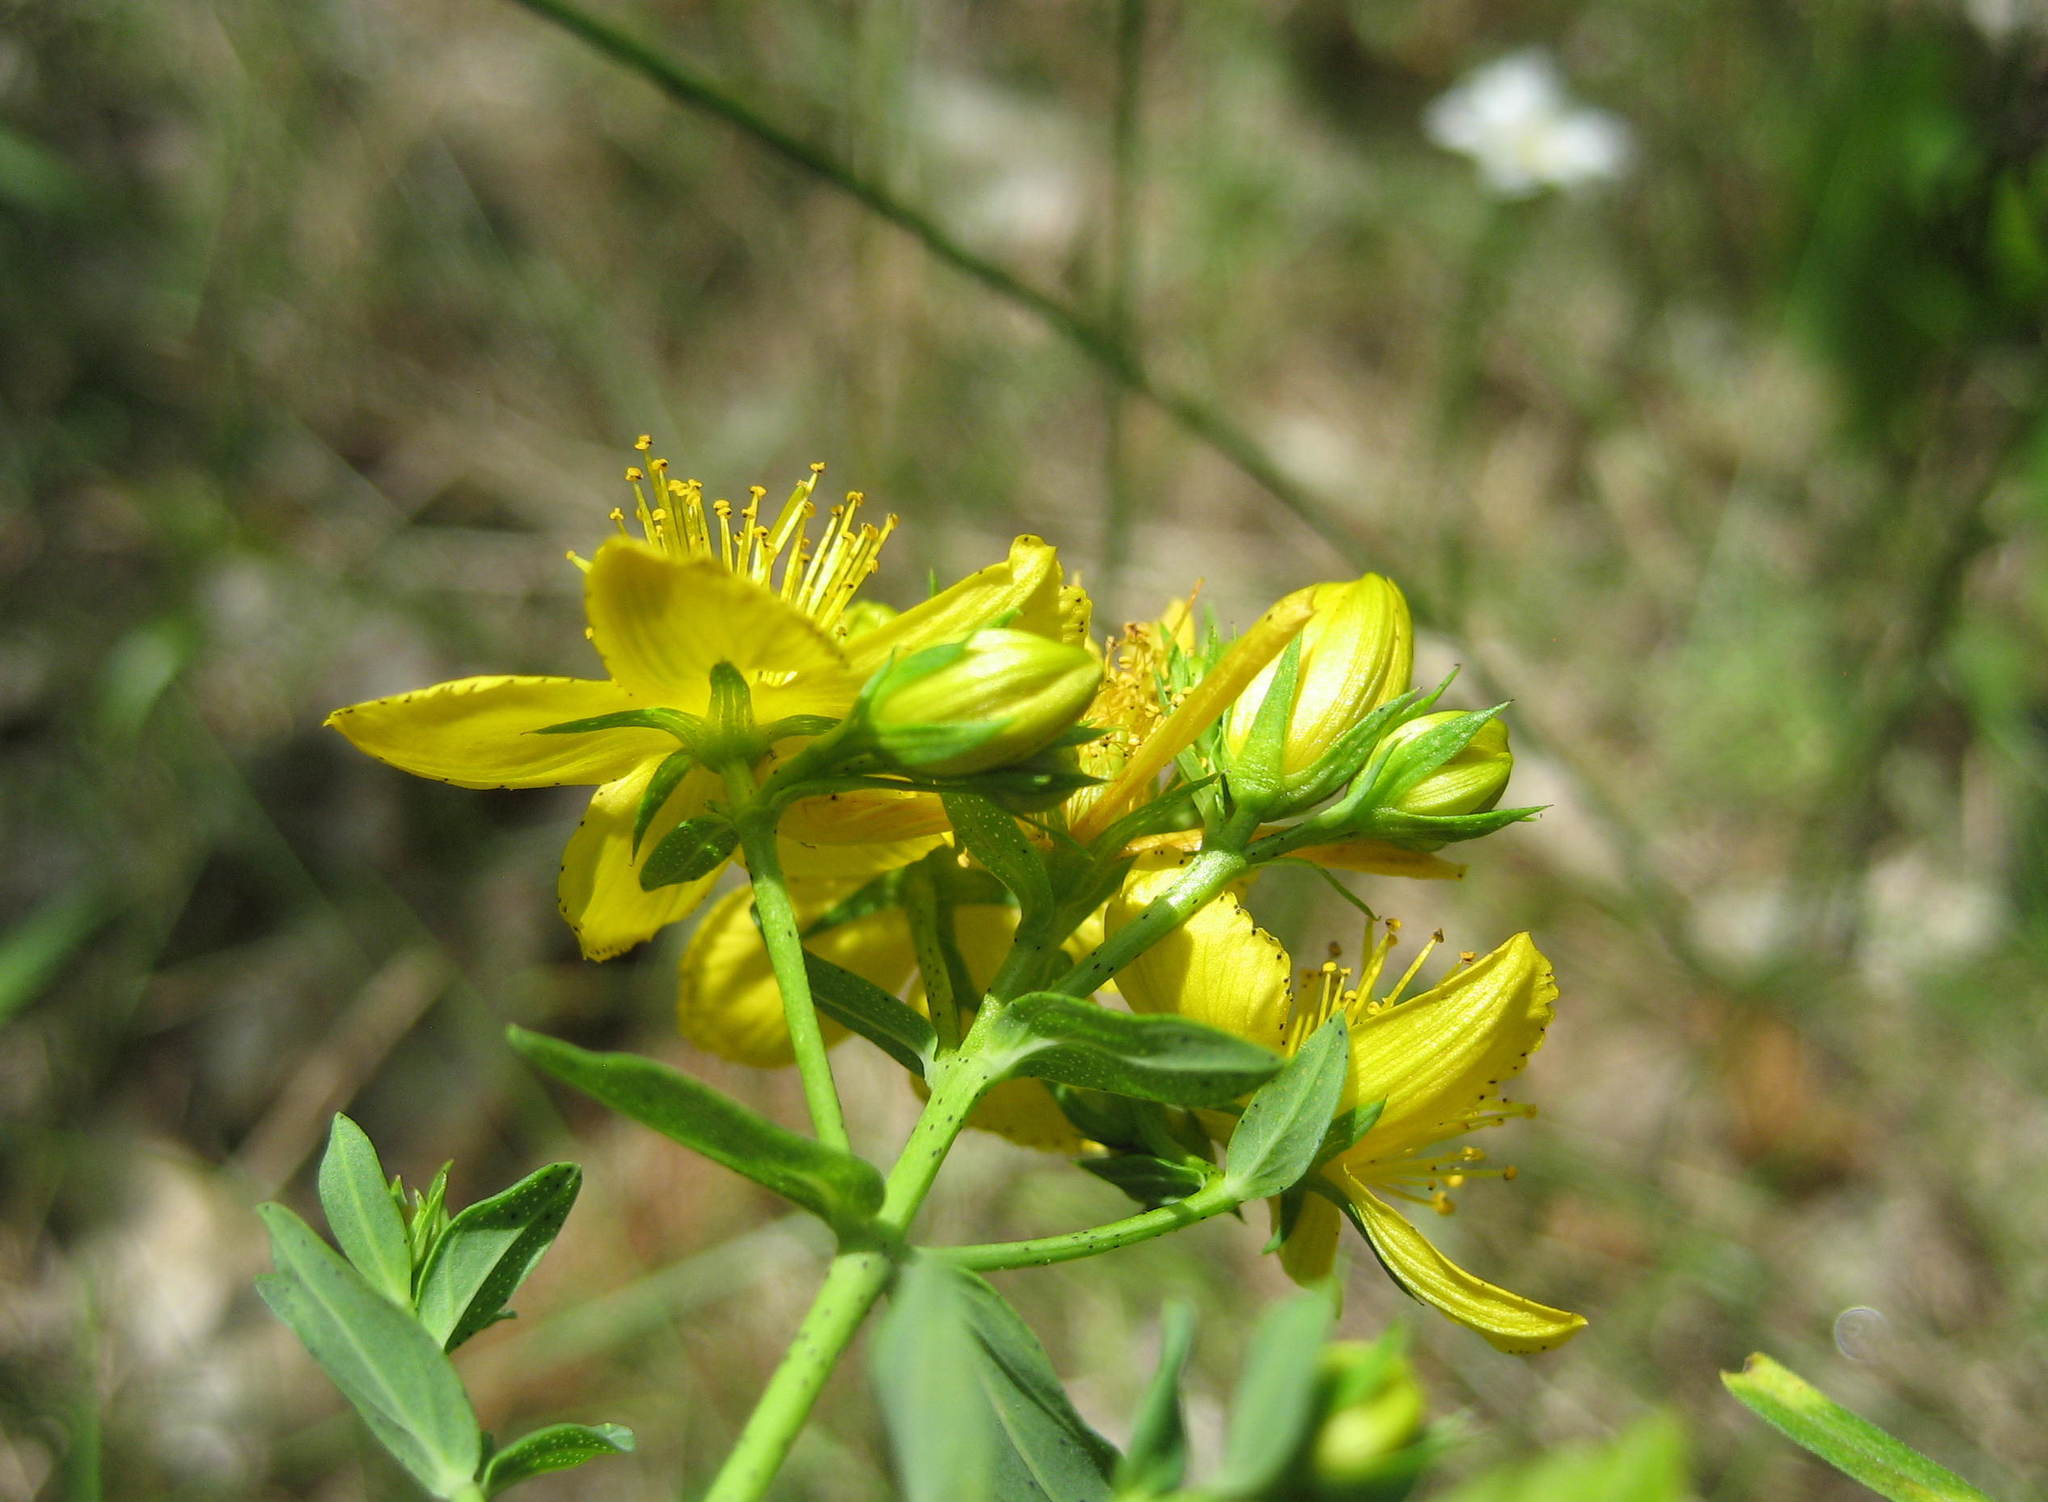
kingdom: Plantae
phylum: Tracheophyta
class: Magnoliopsida
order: Malpighiales
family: Hypericaceae
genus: Hypericum
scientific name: Hypericum perforatum
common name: Common st. johnswort
